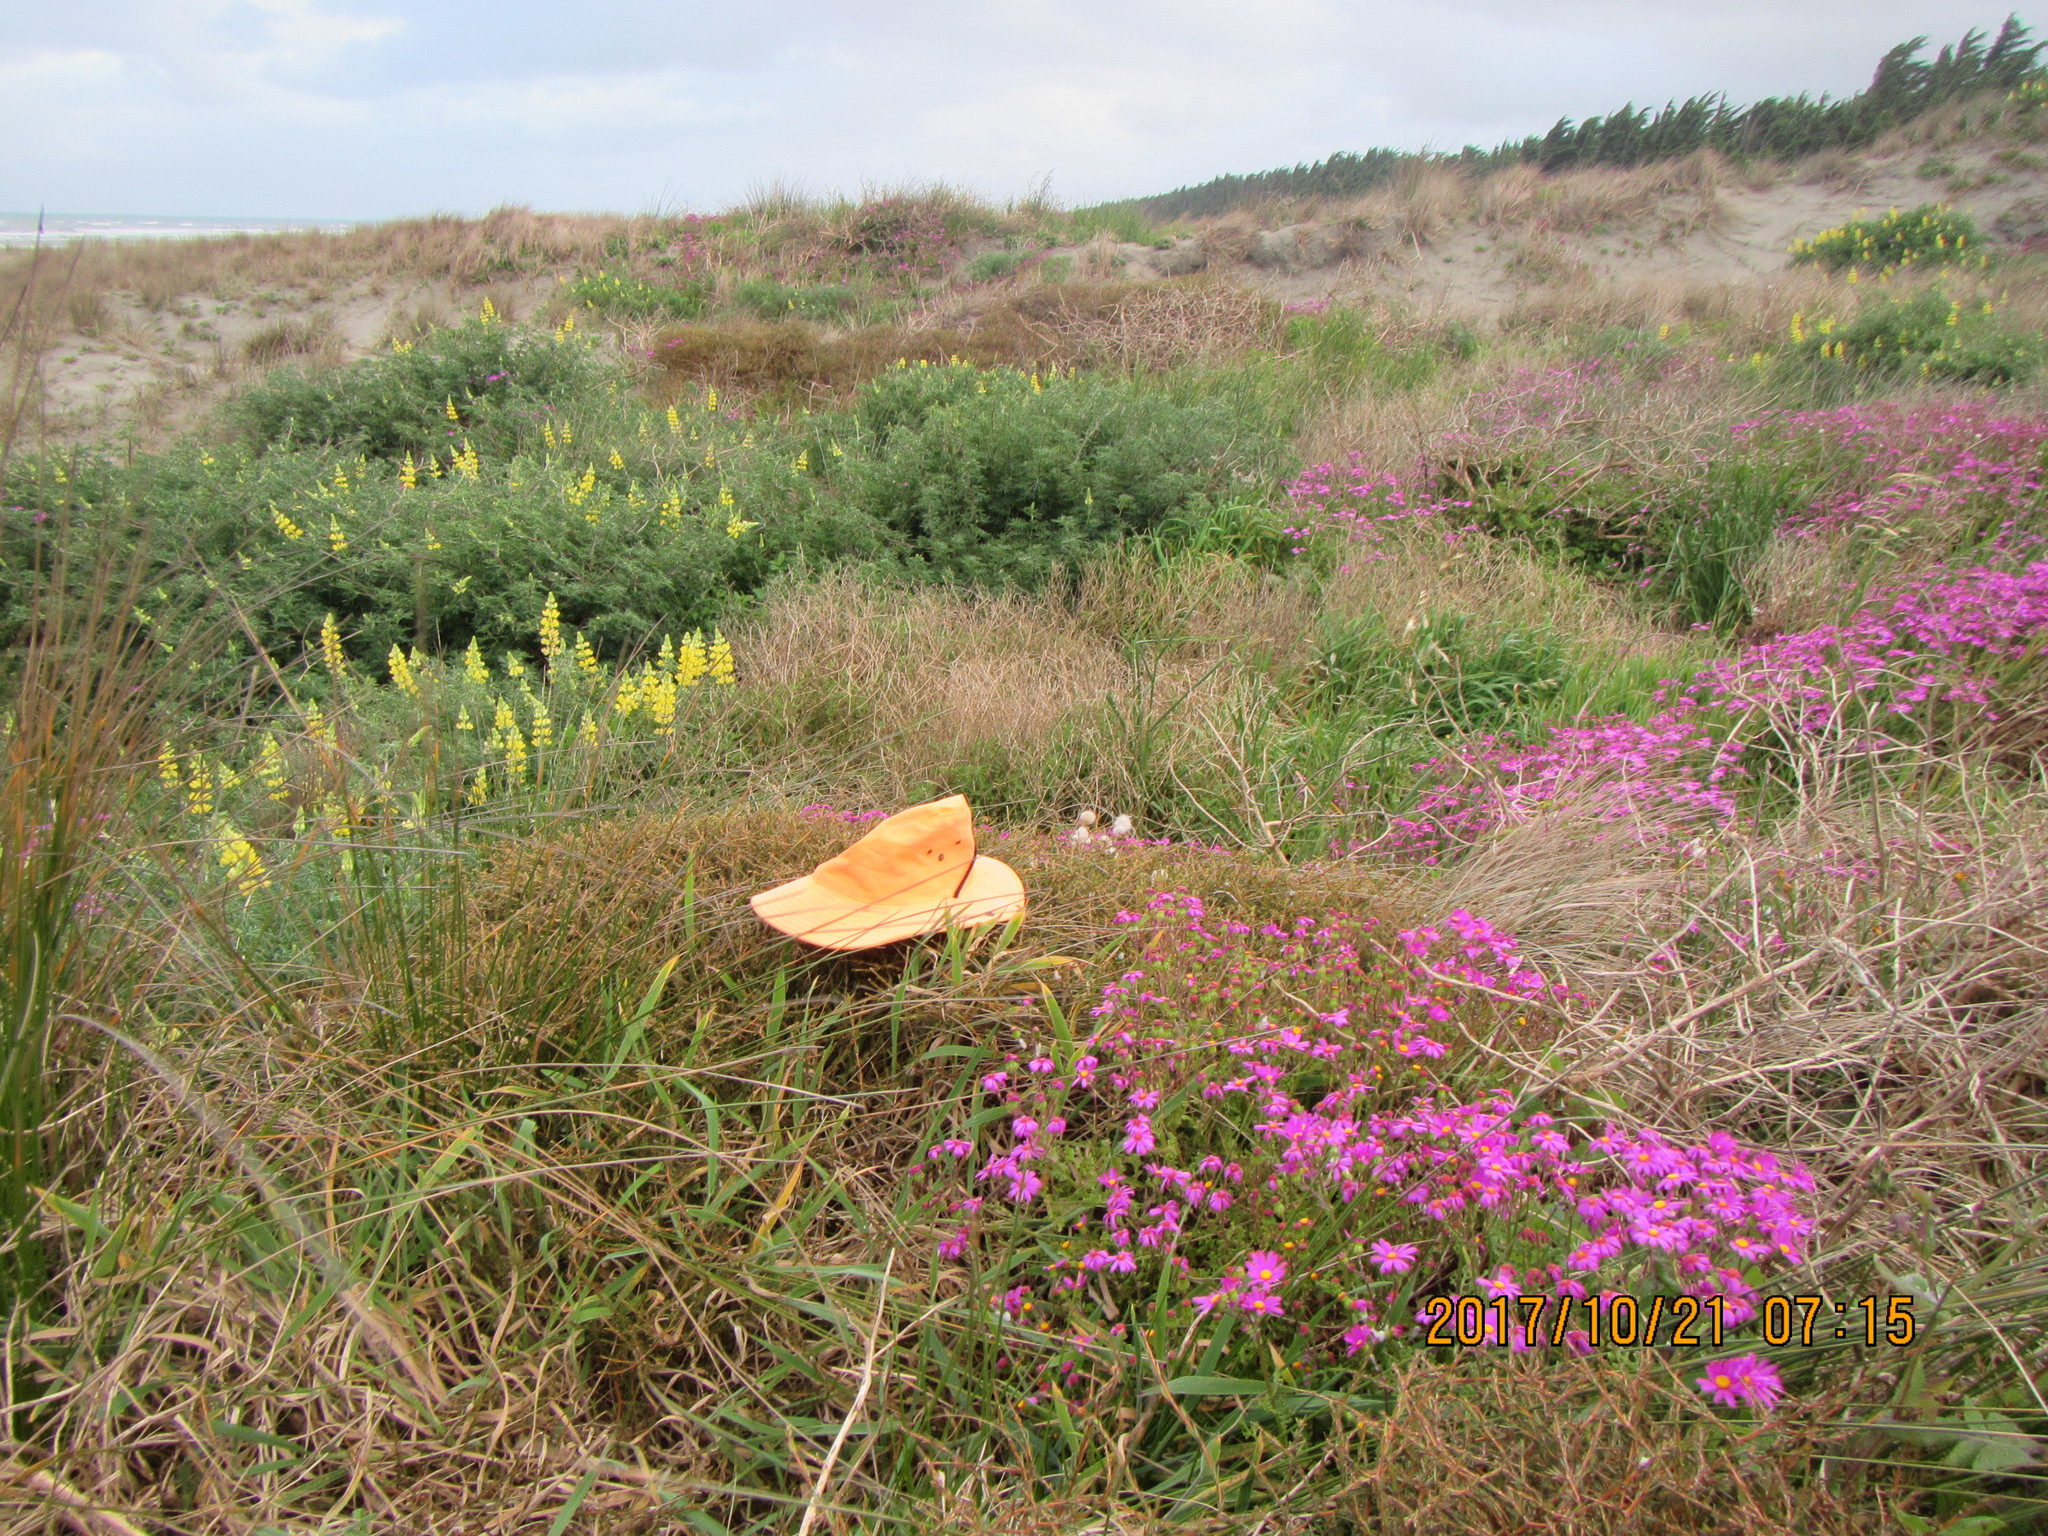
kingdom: Plantae
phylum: Tracheophyta
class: Magnoliopsida
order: Gentianales
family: Rubiaceae
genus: Coprosma
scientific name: Coprosma acerosa
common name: Sand coprosma
